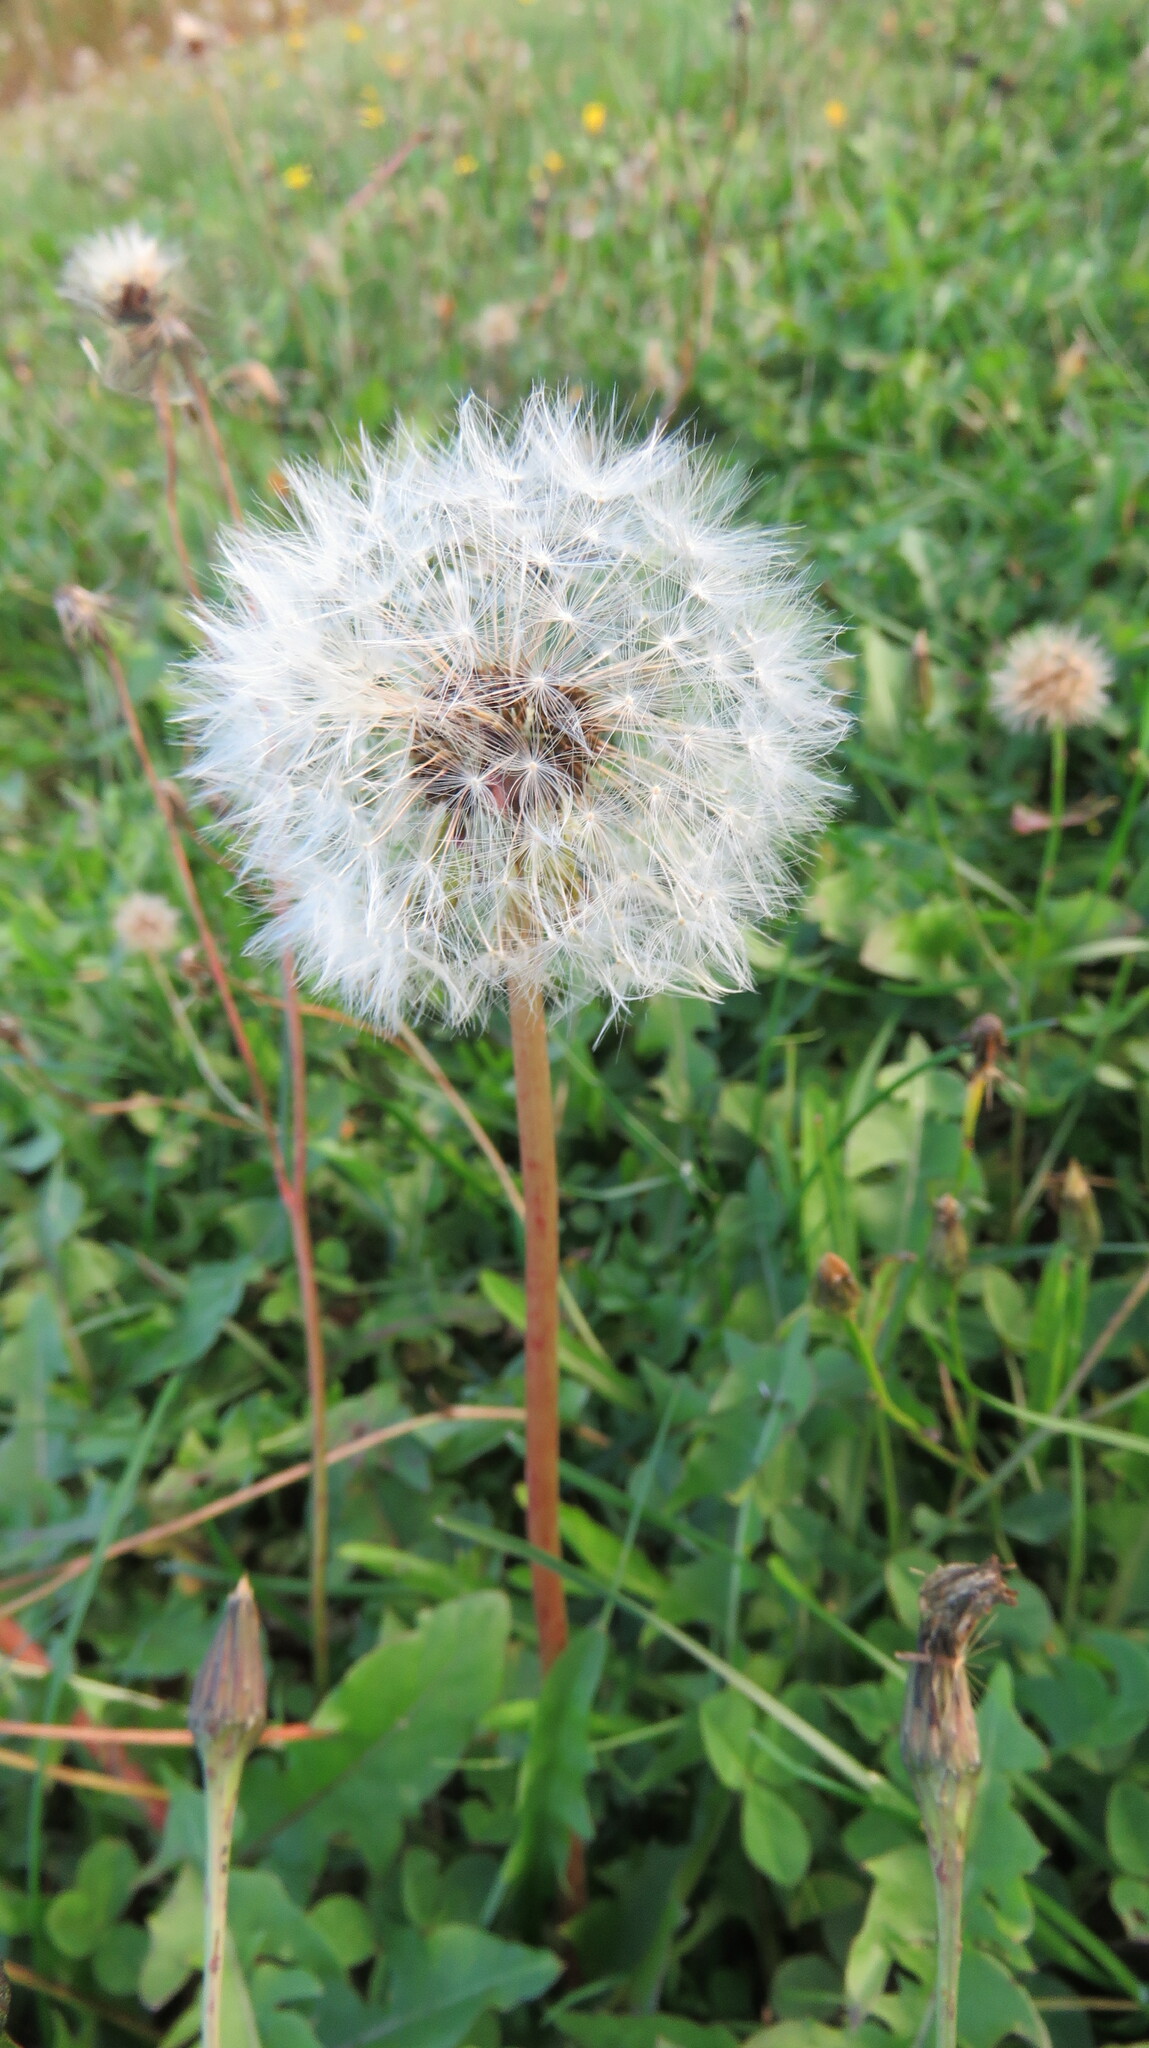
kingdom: Plantae
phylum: Tracheophyta
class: Magnoliopsida
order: Asterales
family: Asteraceae
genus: Taraxacum
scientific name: Taraxacum officinale
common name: Common dandelion
